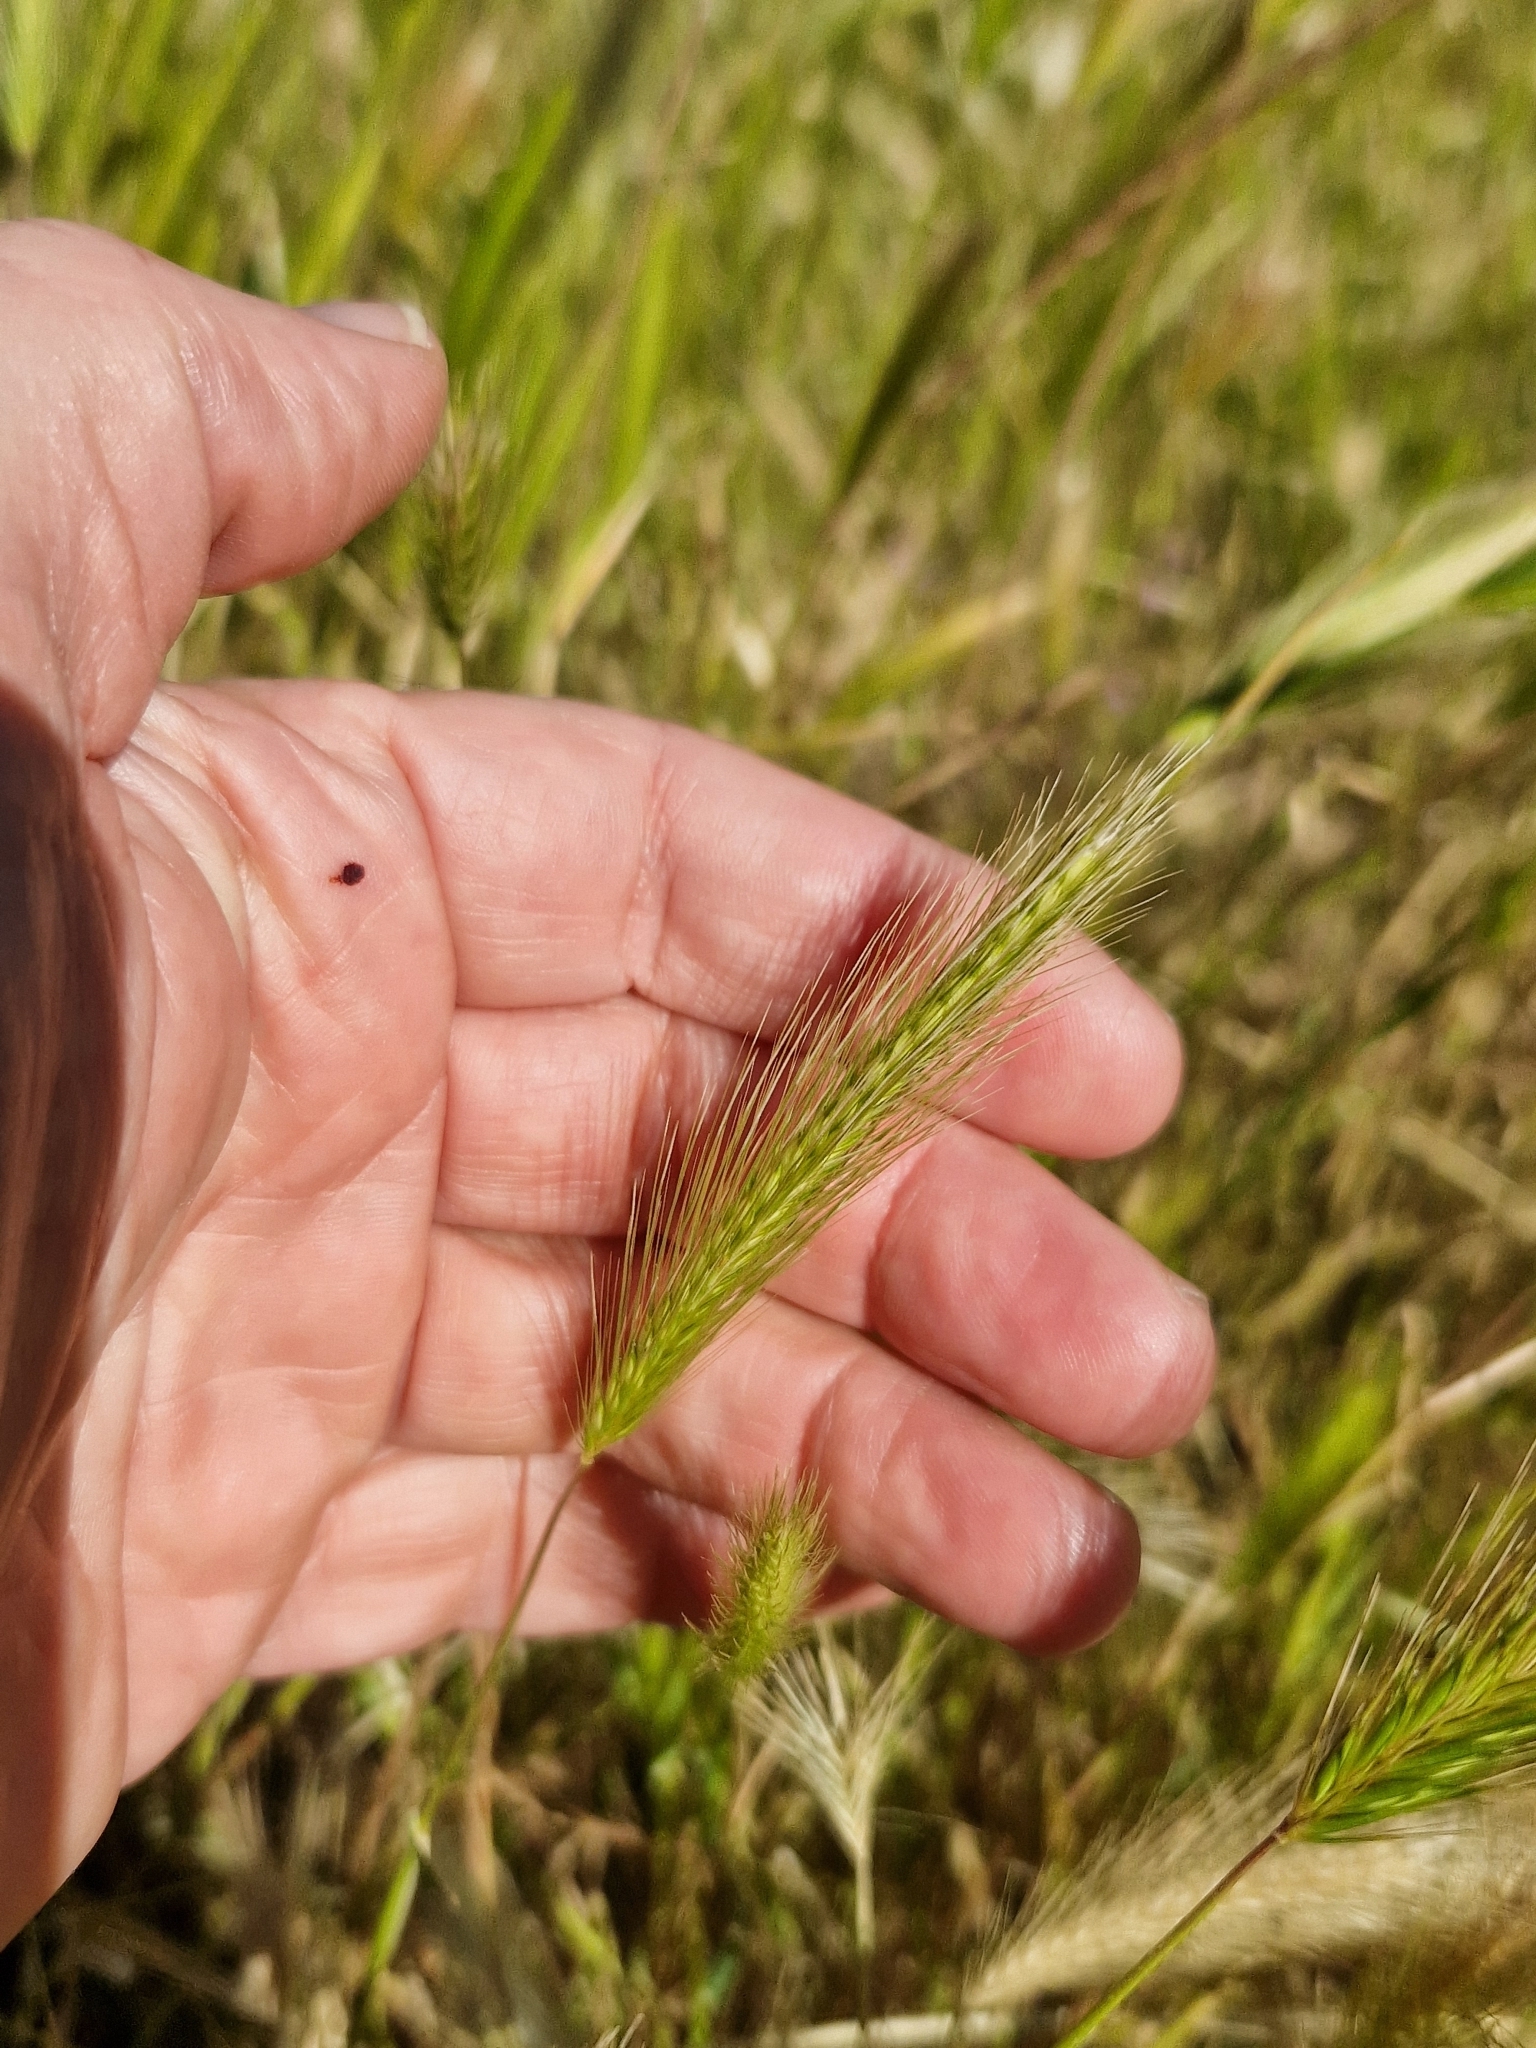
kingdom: Plantae
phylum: Tracheophyta
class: Liliopsida
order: Poales
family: Poaceae
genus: Hordeum
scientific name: Hordeum murinum
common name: Wall barley
